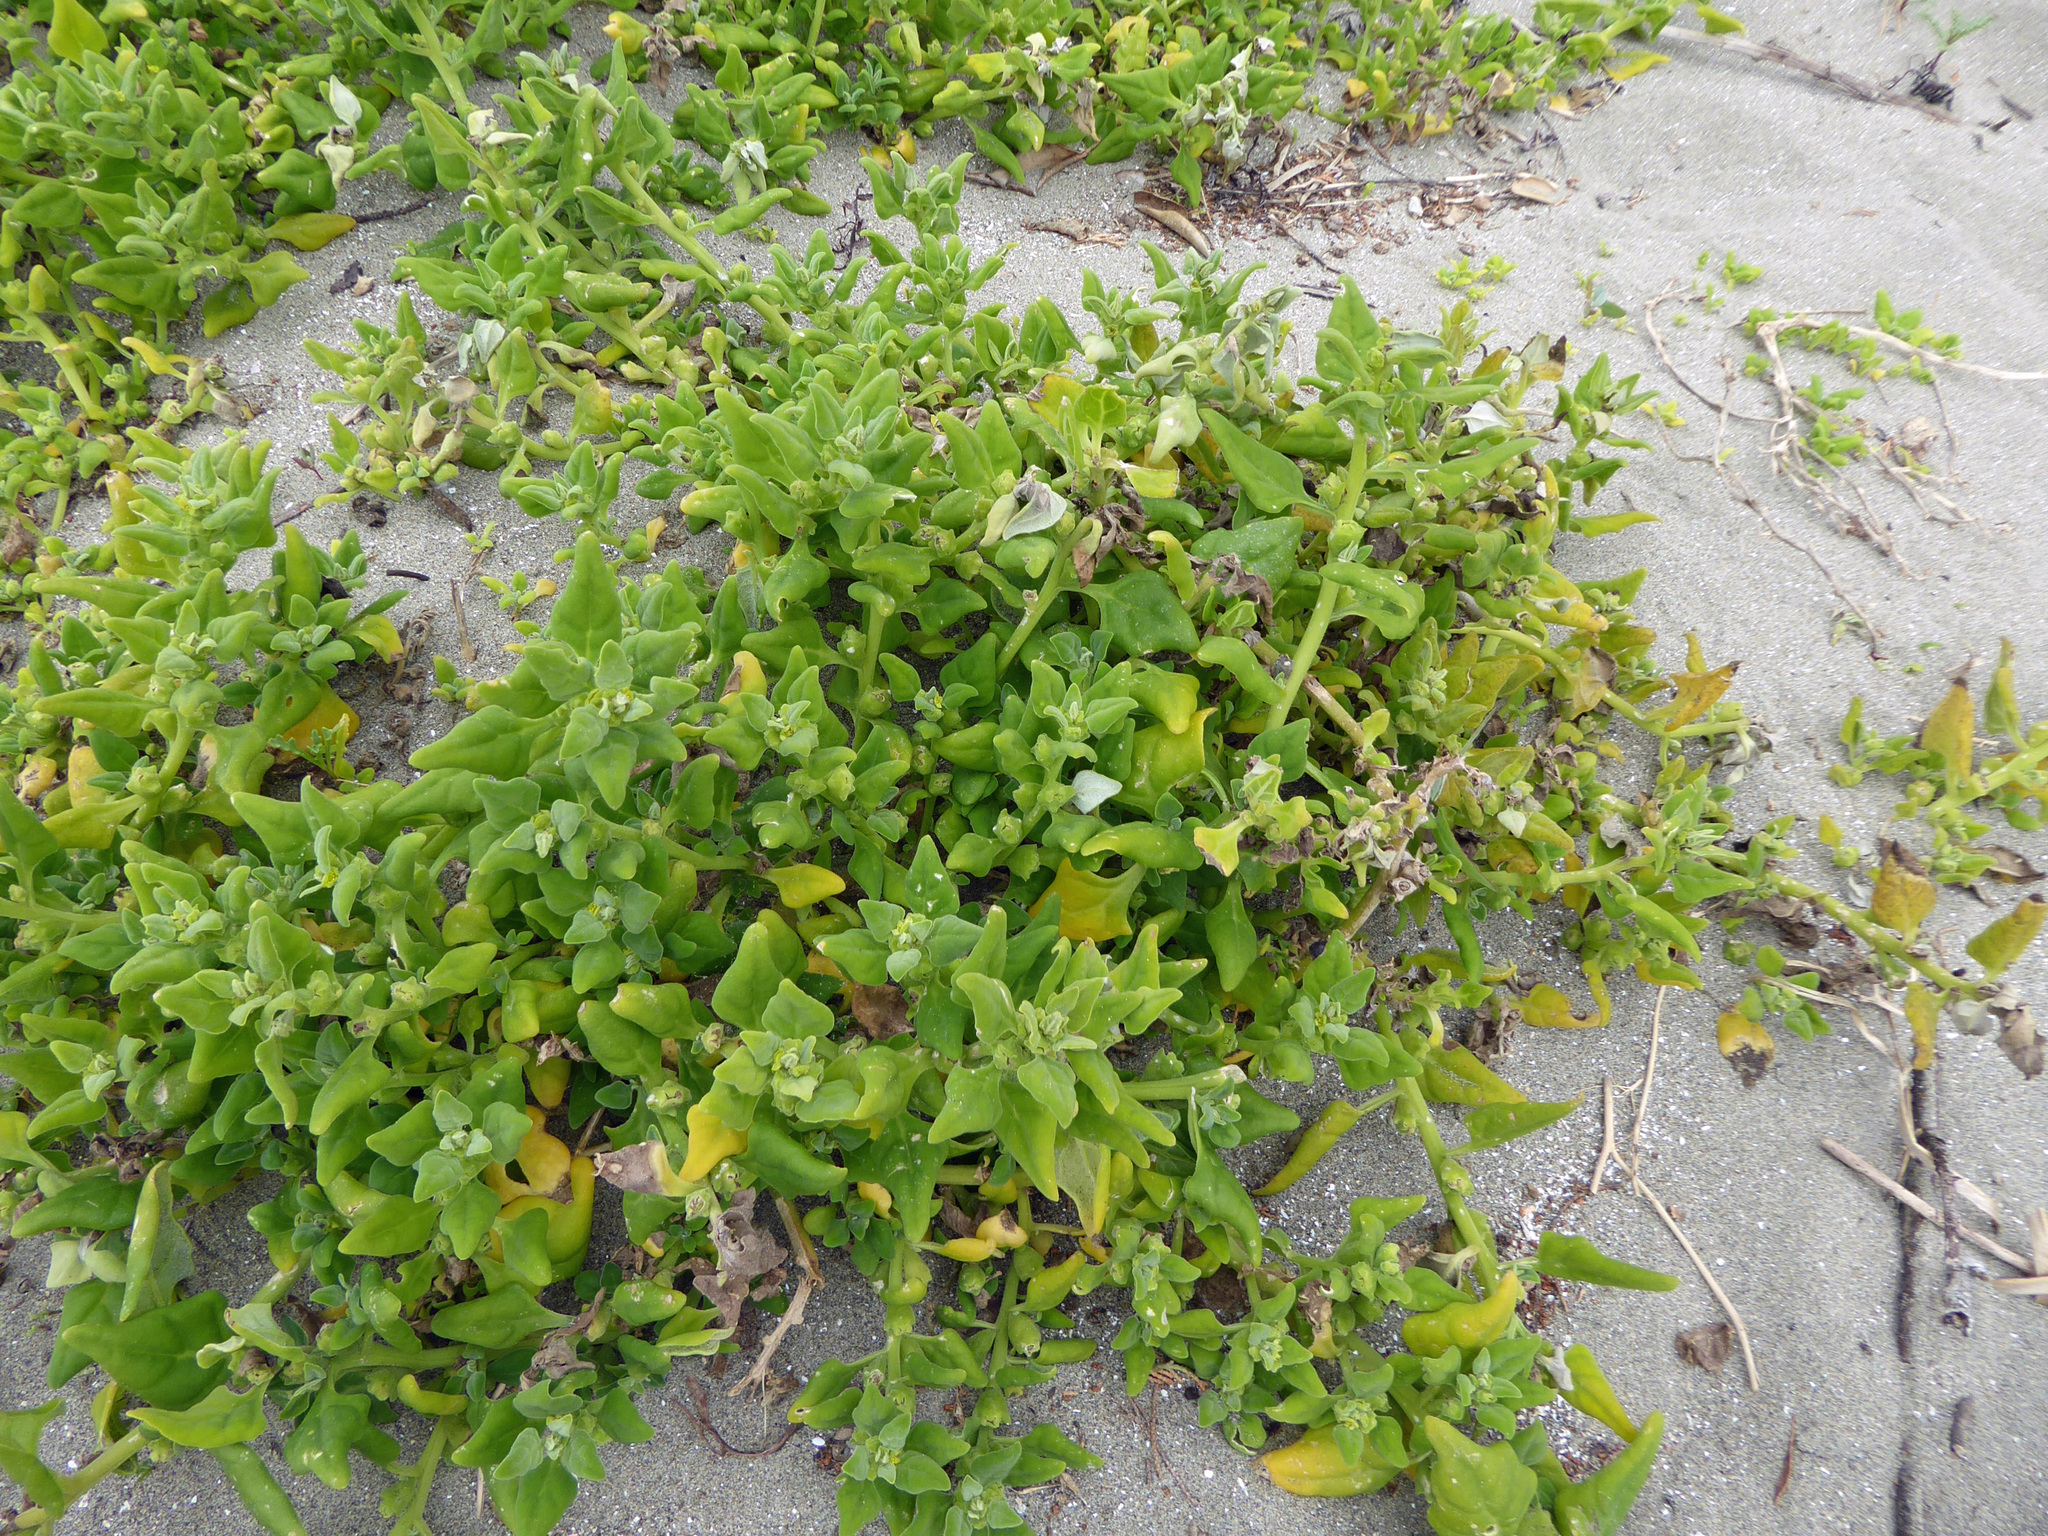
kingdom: Plantae
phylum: Tracheophyta
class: Magnoliopsida
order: Caryophyllales
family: Aizoaceae
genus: Tetragonia
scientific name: Tetragonia tetragonoides
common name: New zealand-spinach
